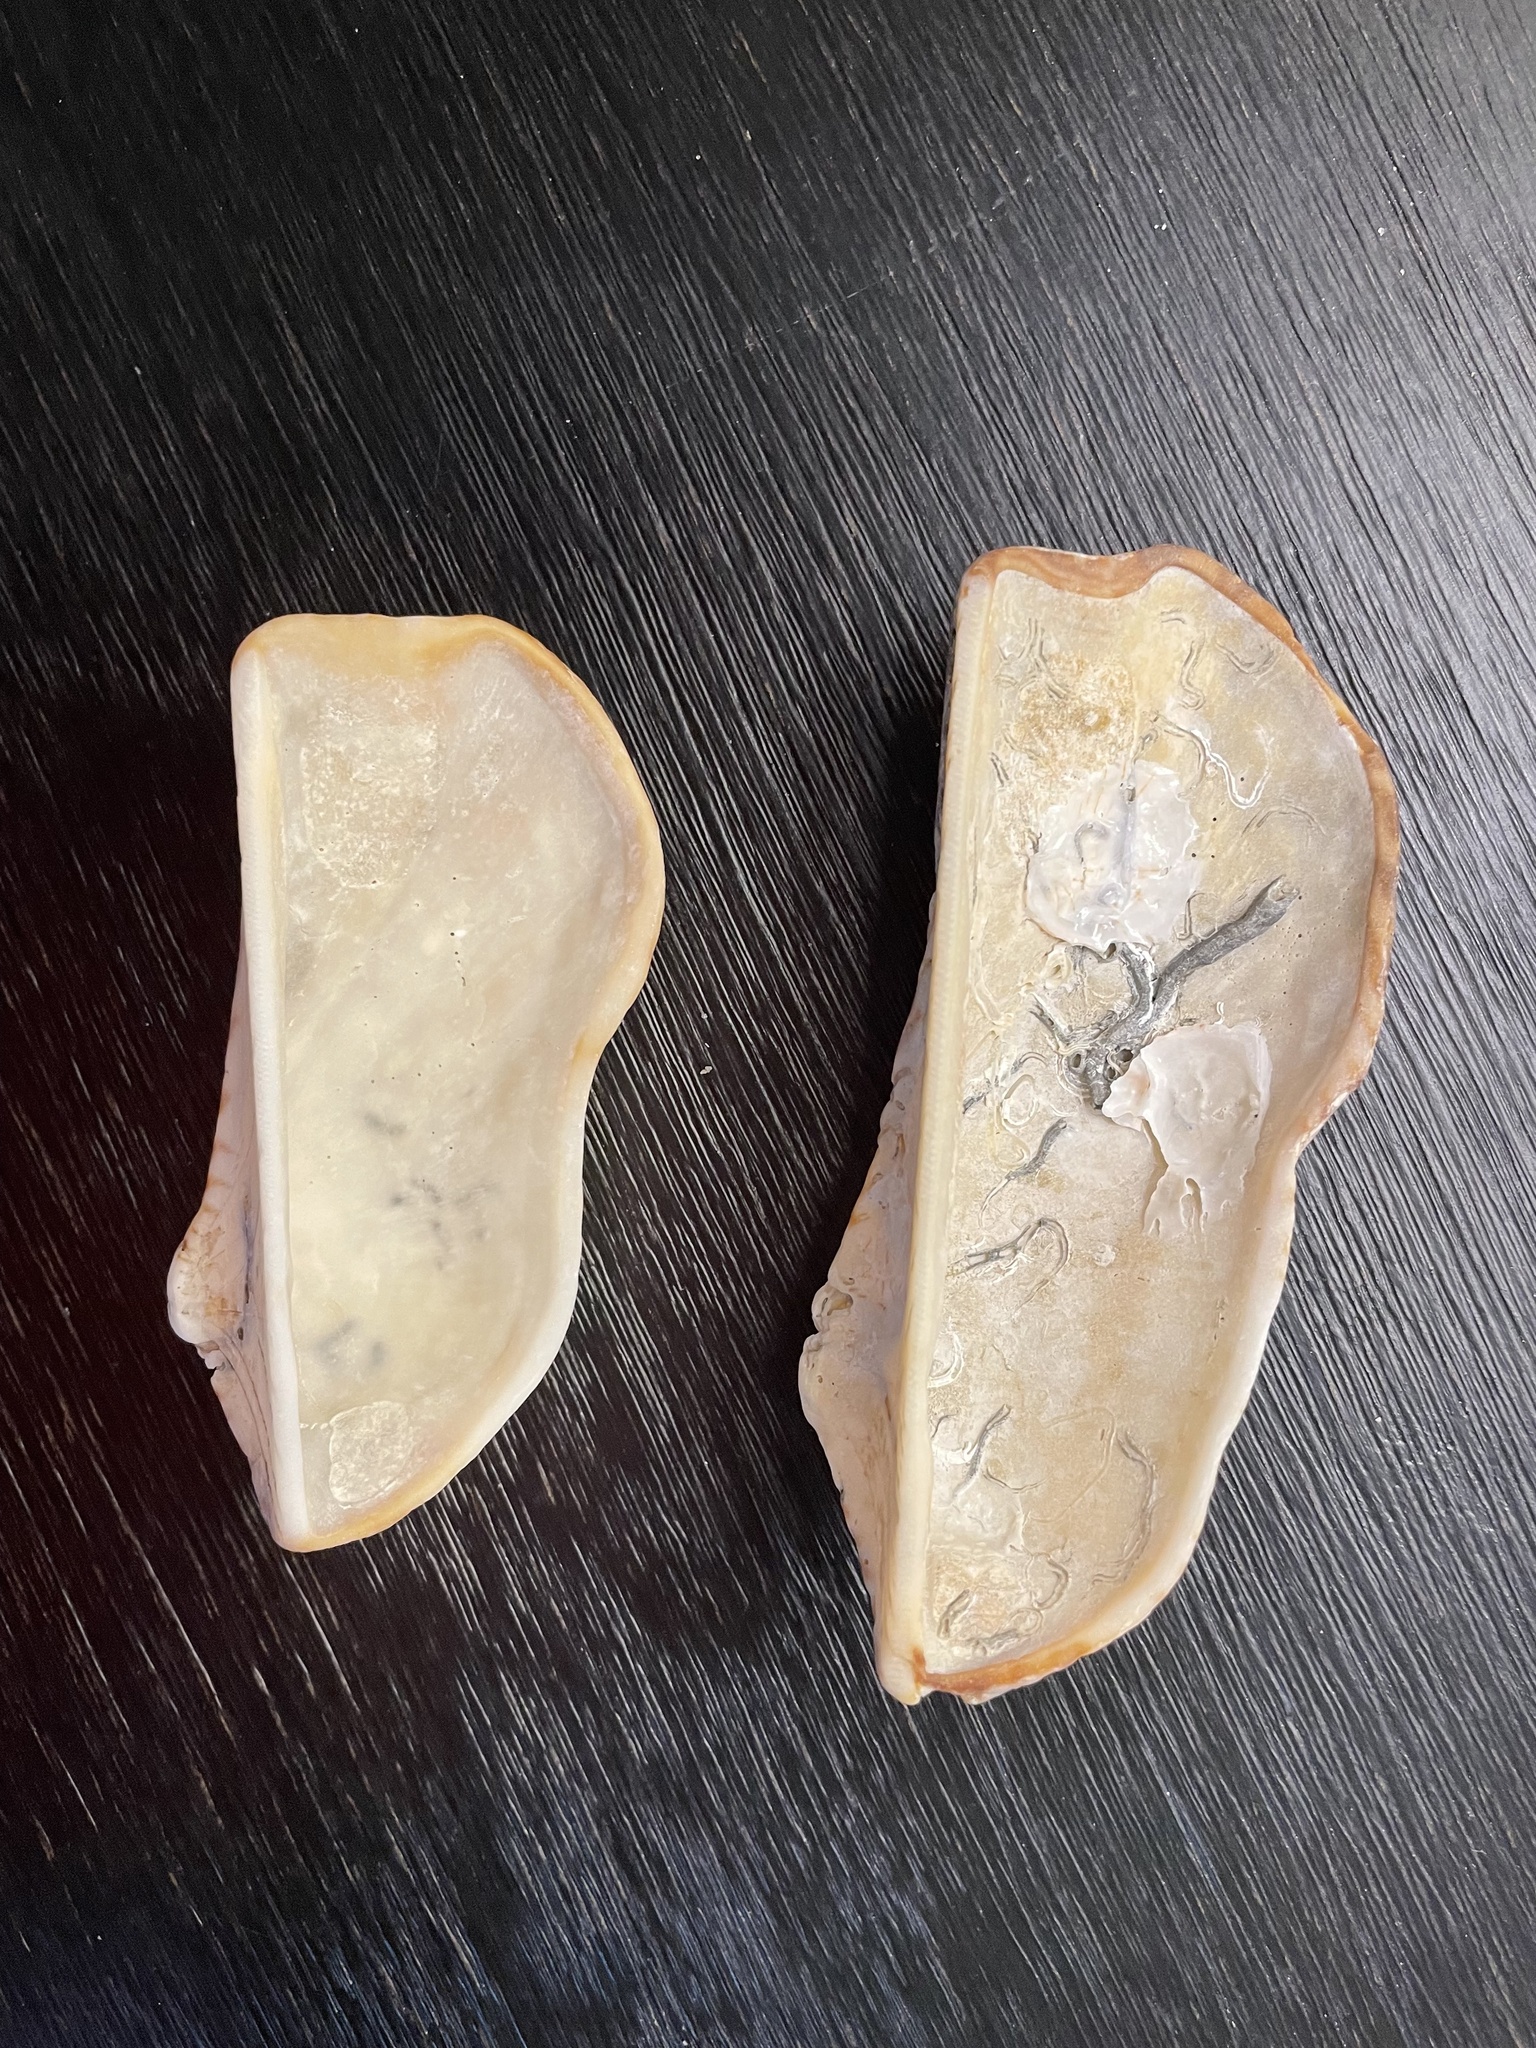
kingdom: Animalia
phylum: Mollusca
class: Bivalvia
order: Arcida
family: Arcidae
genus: Arca
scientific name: Arca zebra
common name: Atlantic turkey wing
